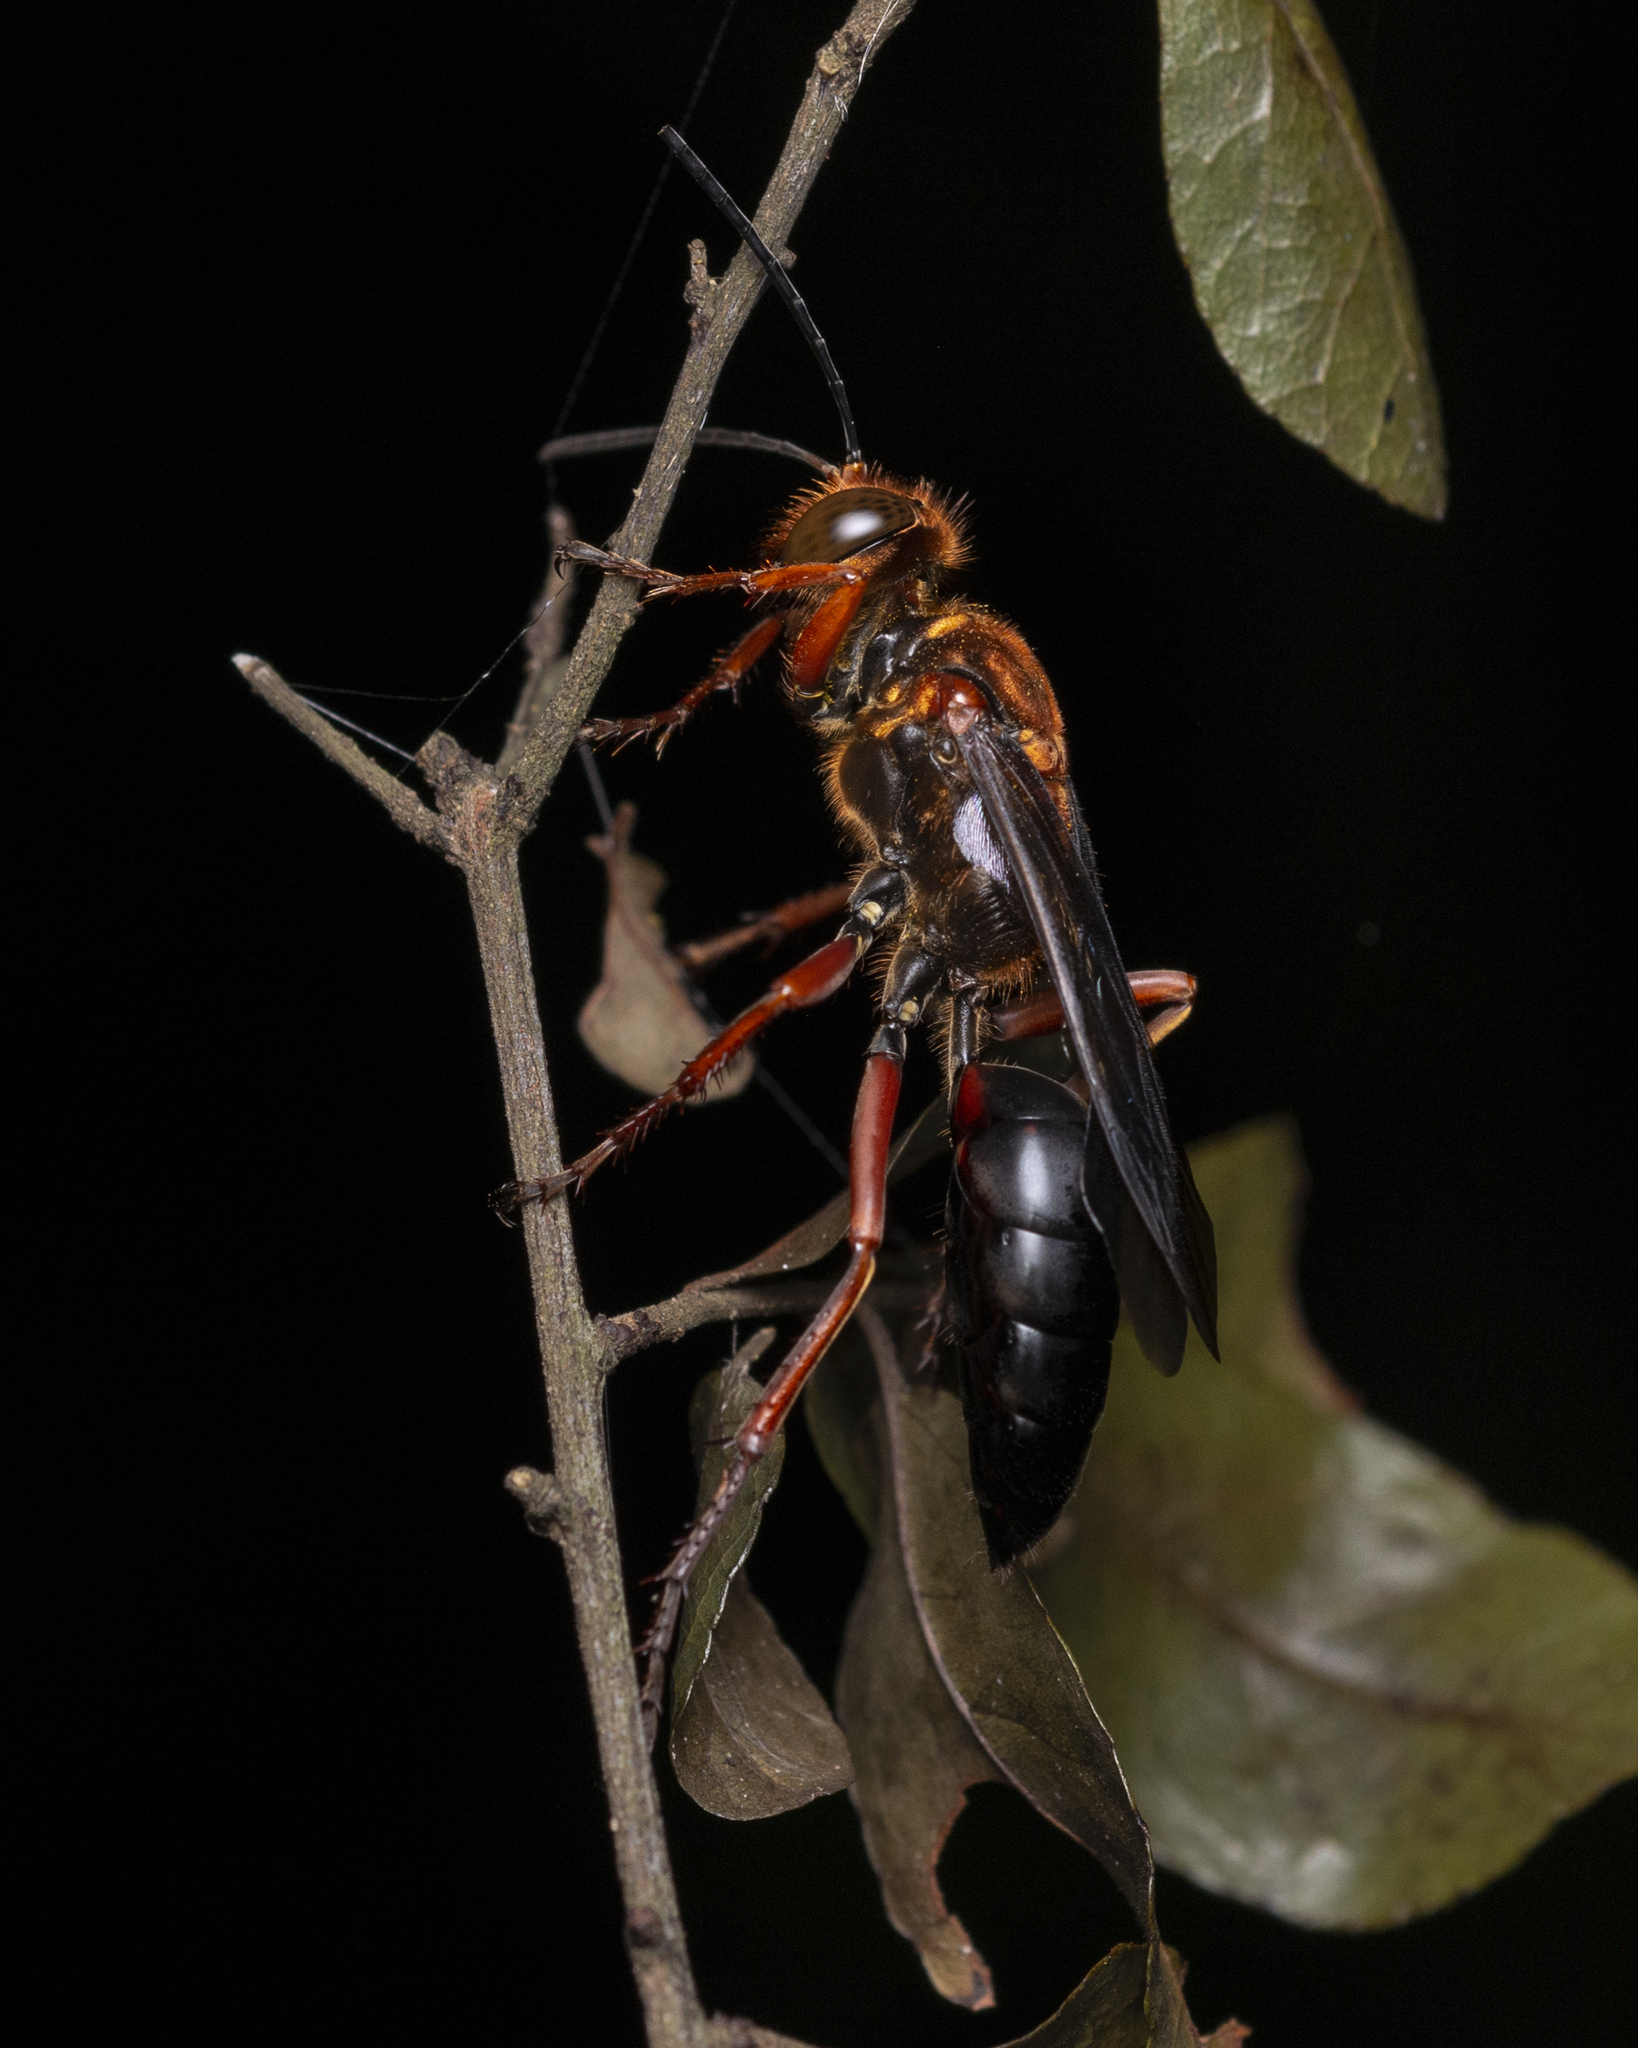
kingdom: Animalia
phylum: Arthropoda
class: Insecta
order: Hymenoptera
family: Sphecidae
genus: Sphex
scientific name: Sphex sericeus
